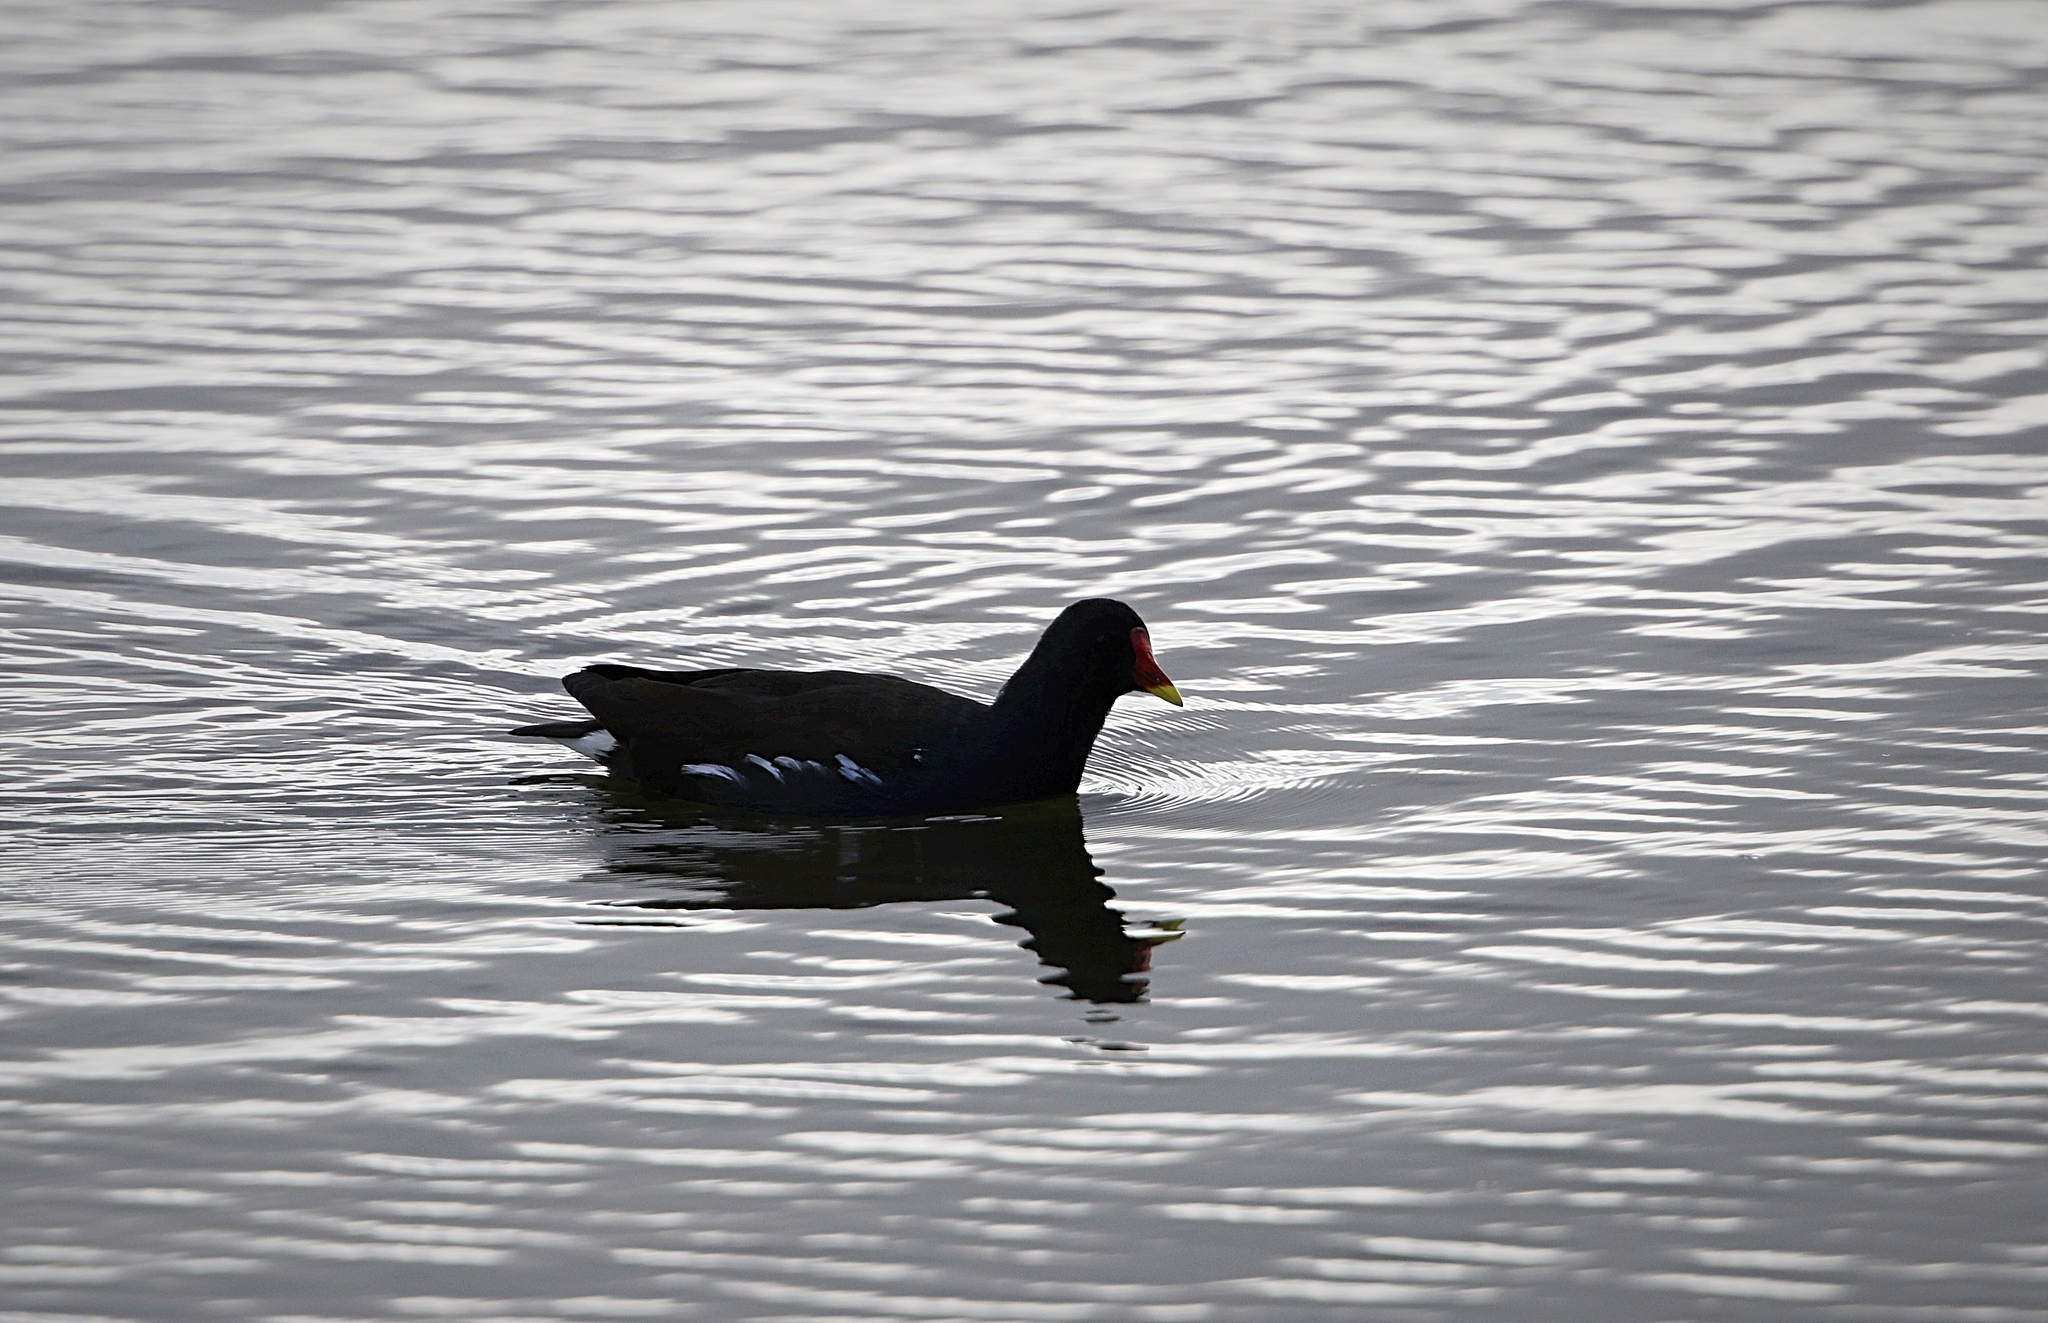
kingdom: Animalia
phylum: Chordata
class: Aves
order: Gruiformes
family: Rallidae
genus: Gallinula
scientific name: Gallinula chloropus
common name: Common moorhen
